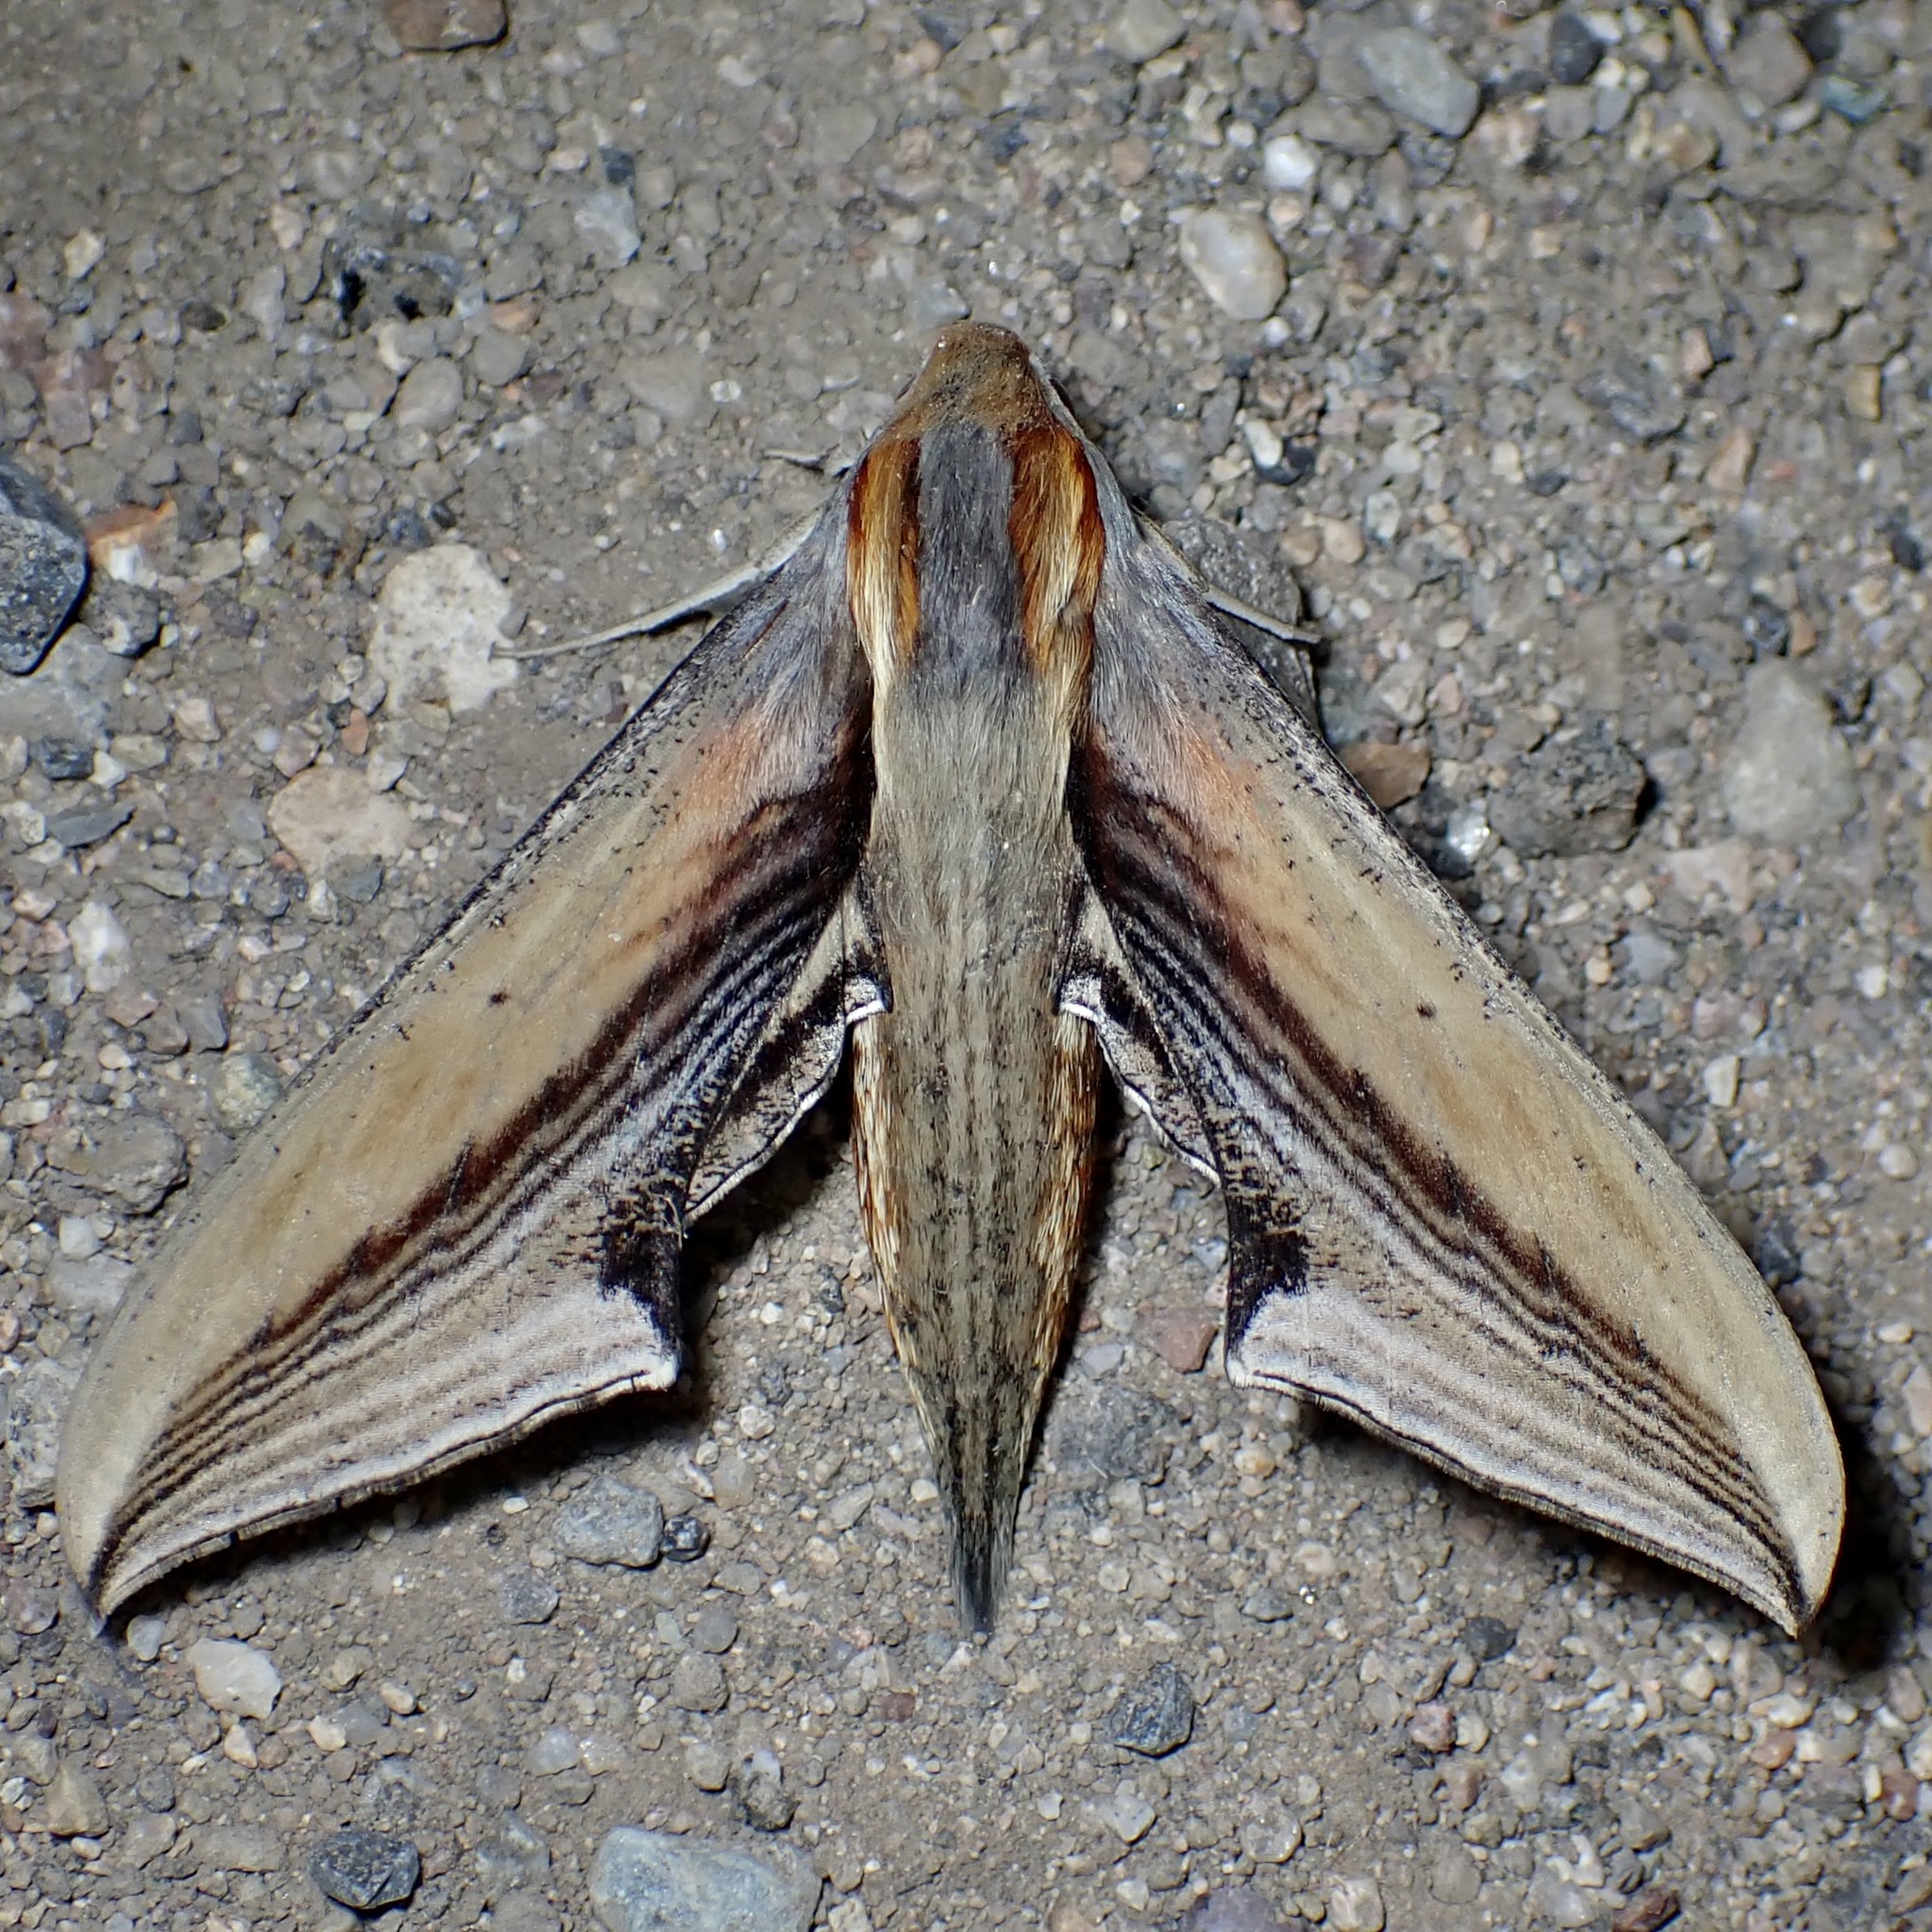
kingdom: Animalia
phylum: Arthropoda
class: Insecta
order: Lepidoptera
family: Sphingidae
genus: Xylophanes
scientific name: Xylophanes falco
